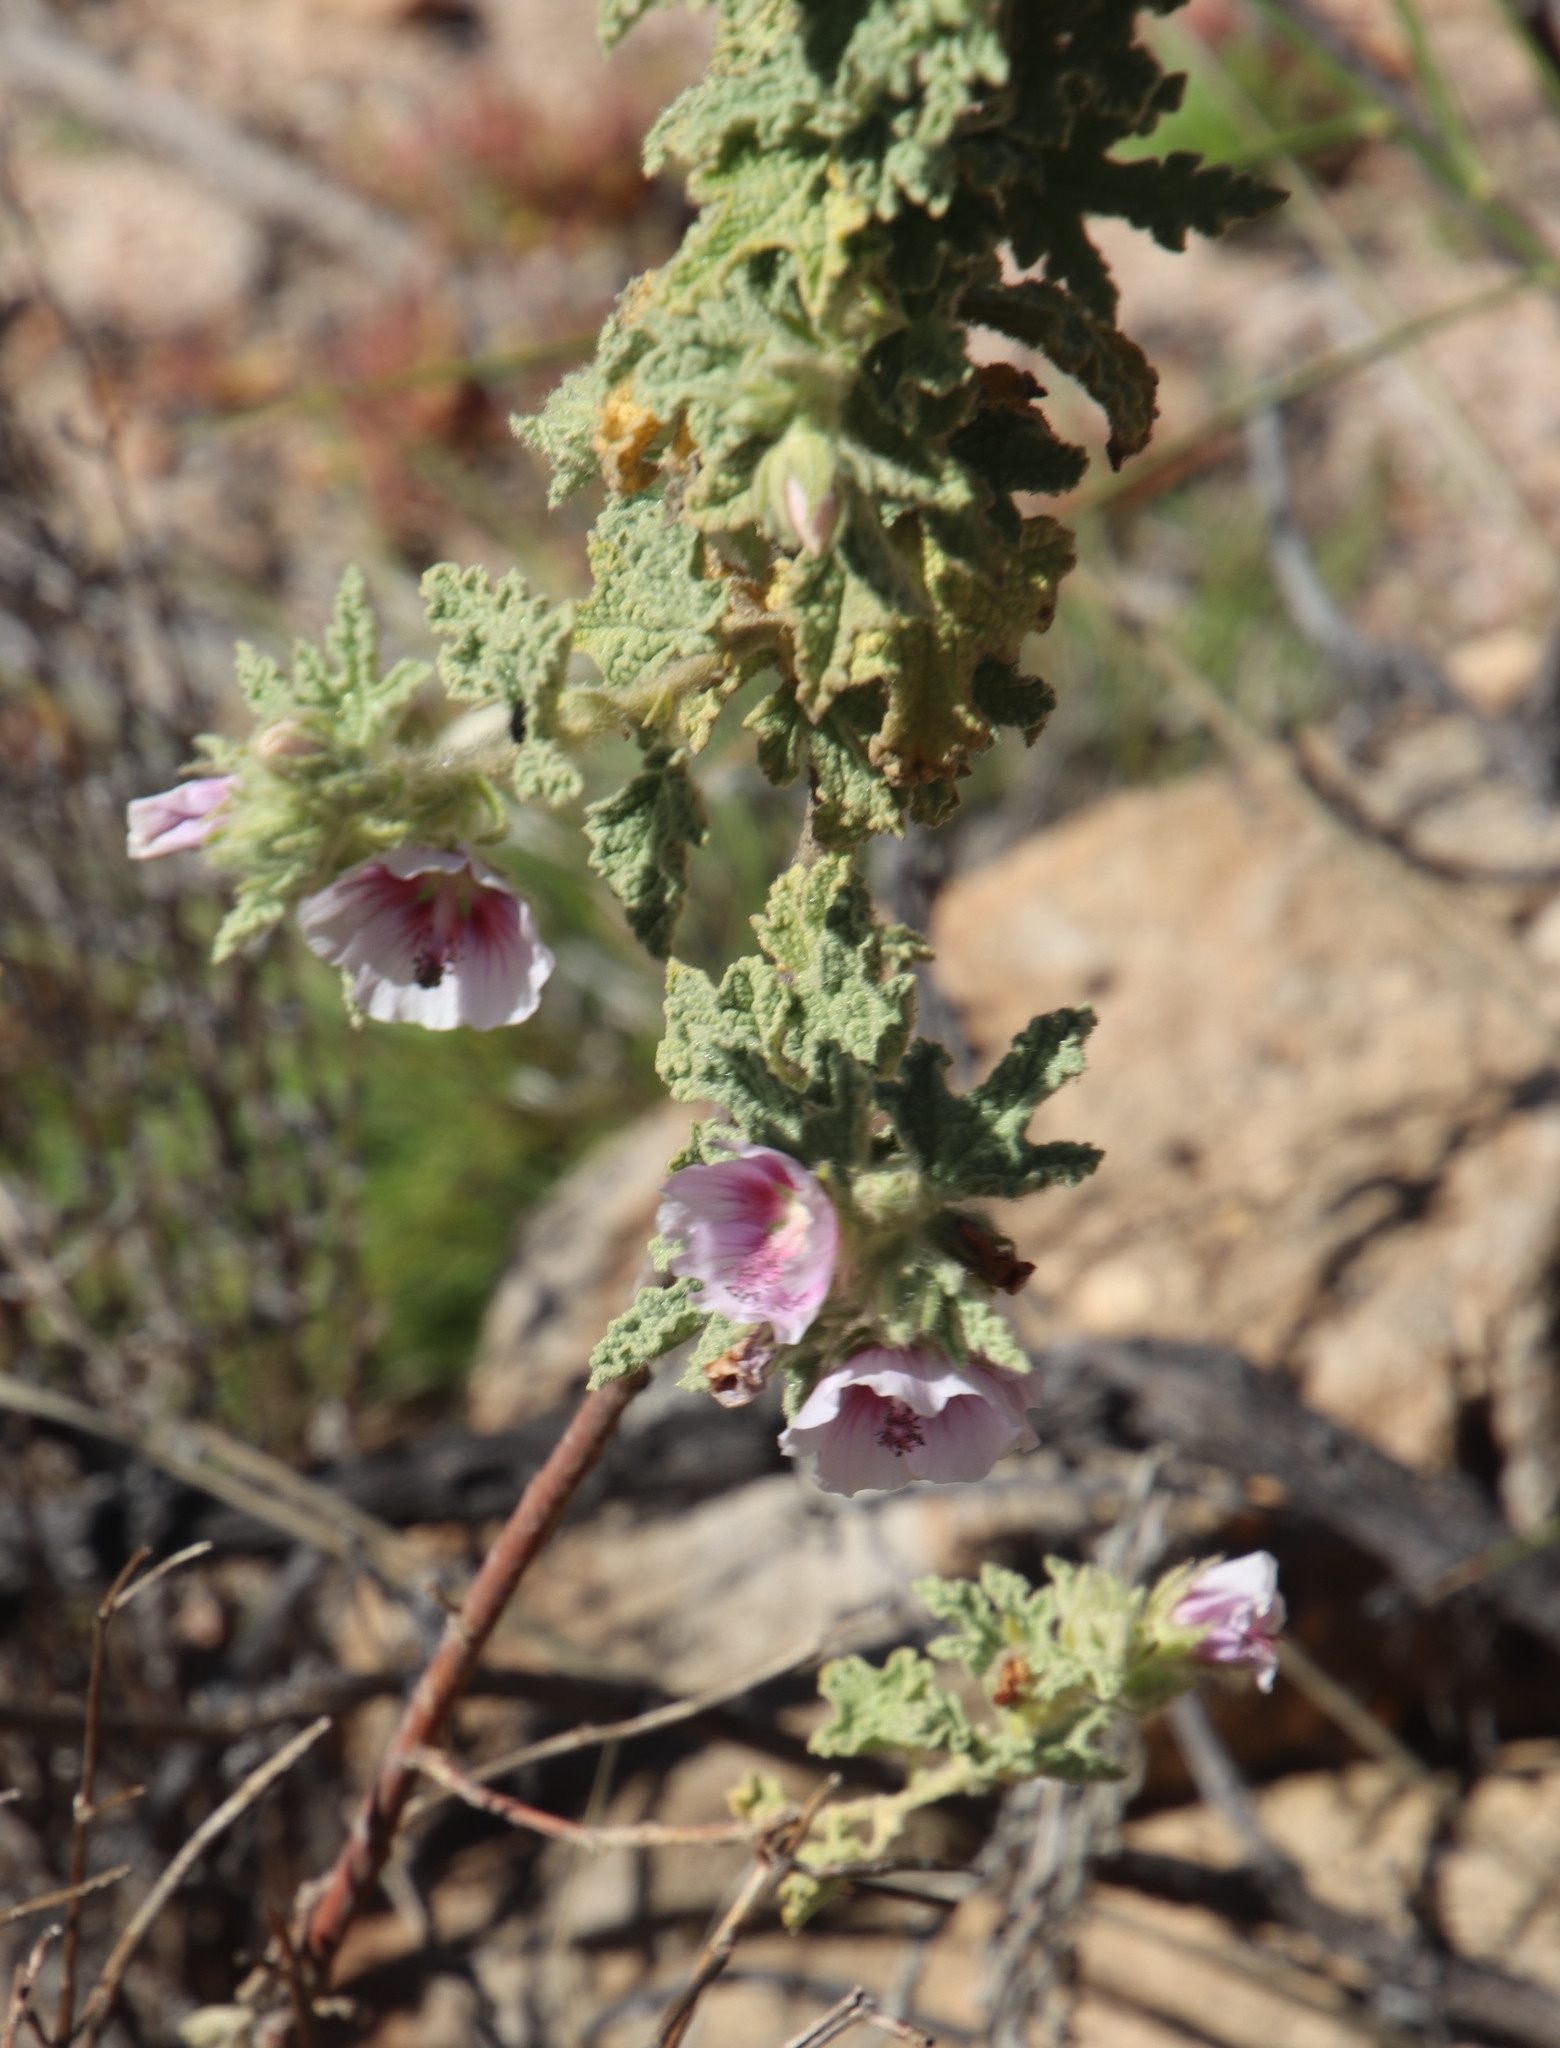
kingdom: Plantae
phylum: Tracheophyta
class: Magnoliopsida
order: Malvales
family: Malvaceae
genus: Anisodontea
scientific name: Anisodontea scabrosa
